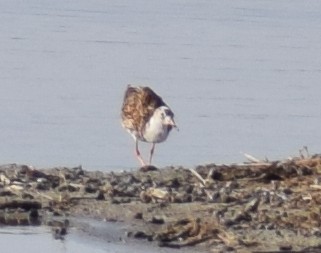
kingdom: Animalia
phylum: Chordata
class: Aves
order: Charadriiformes
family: Scolopacidae
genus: Calidris
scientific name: Calidris pugnax
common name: Ruff
